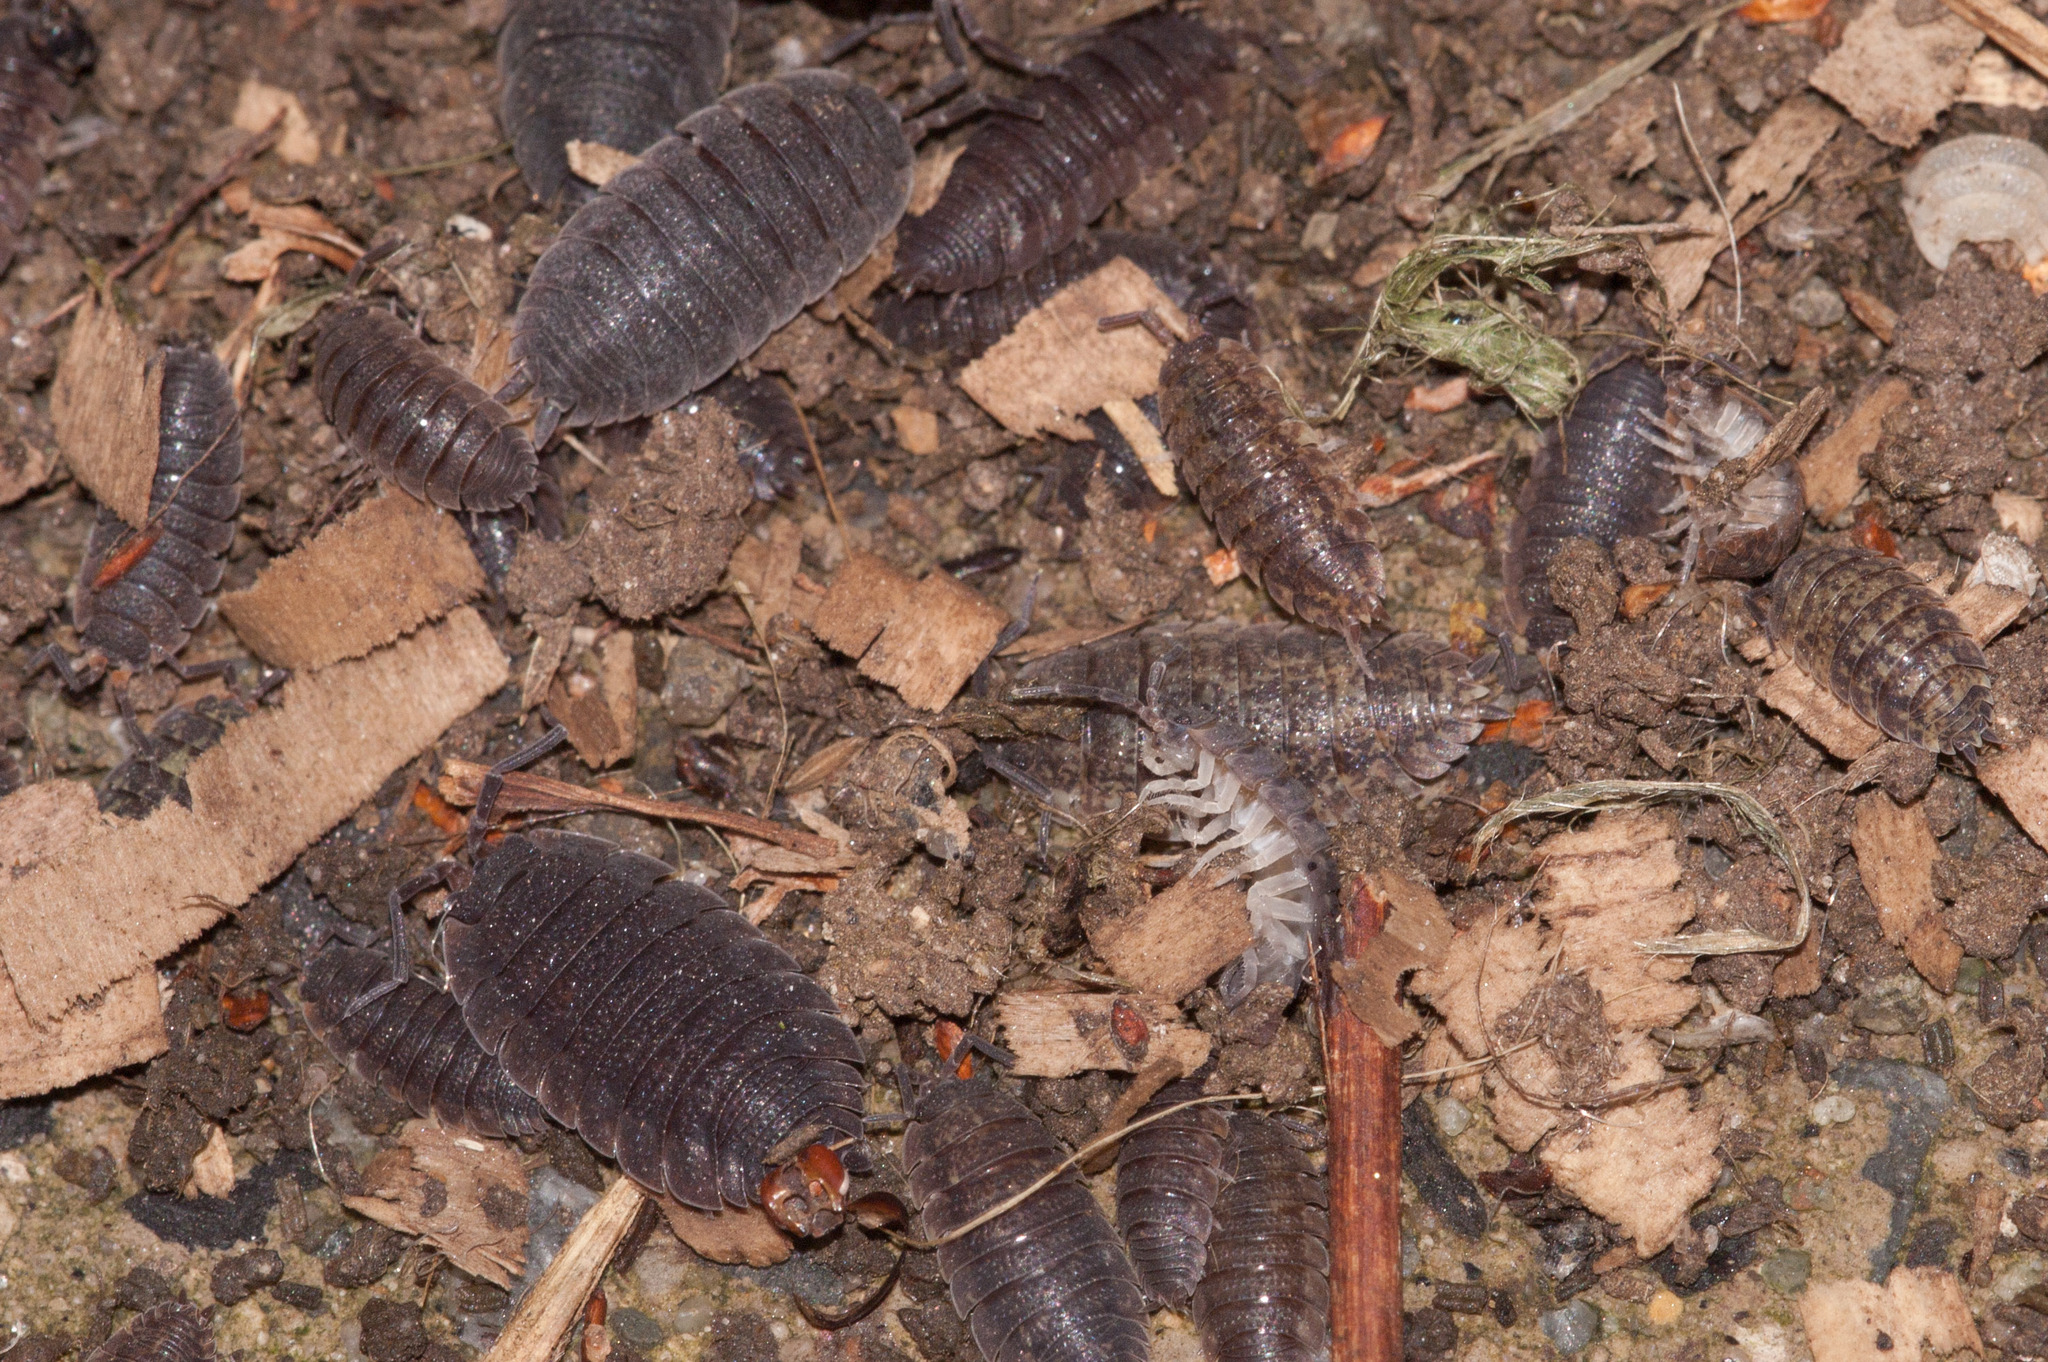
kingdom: Animalia
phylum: Arthropoda
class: Malacostraca
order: Isopoda
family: Porcellionidae
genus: Porcellio
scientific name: Porcellio scaber
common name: Common rough woodlouse
